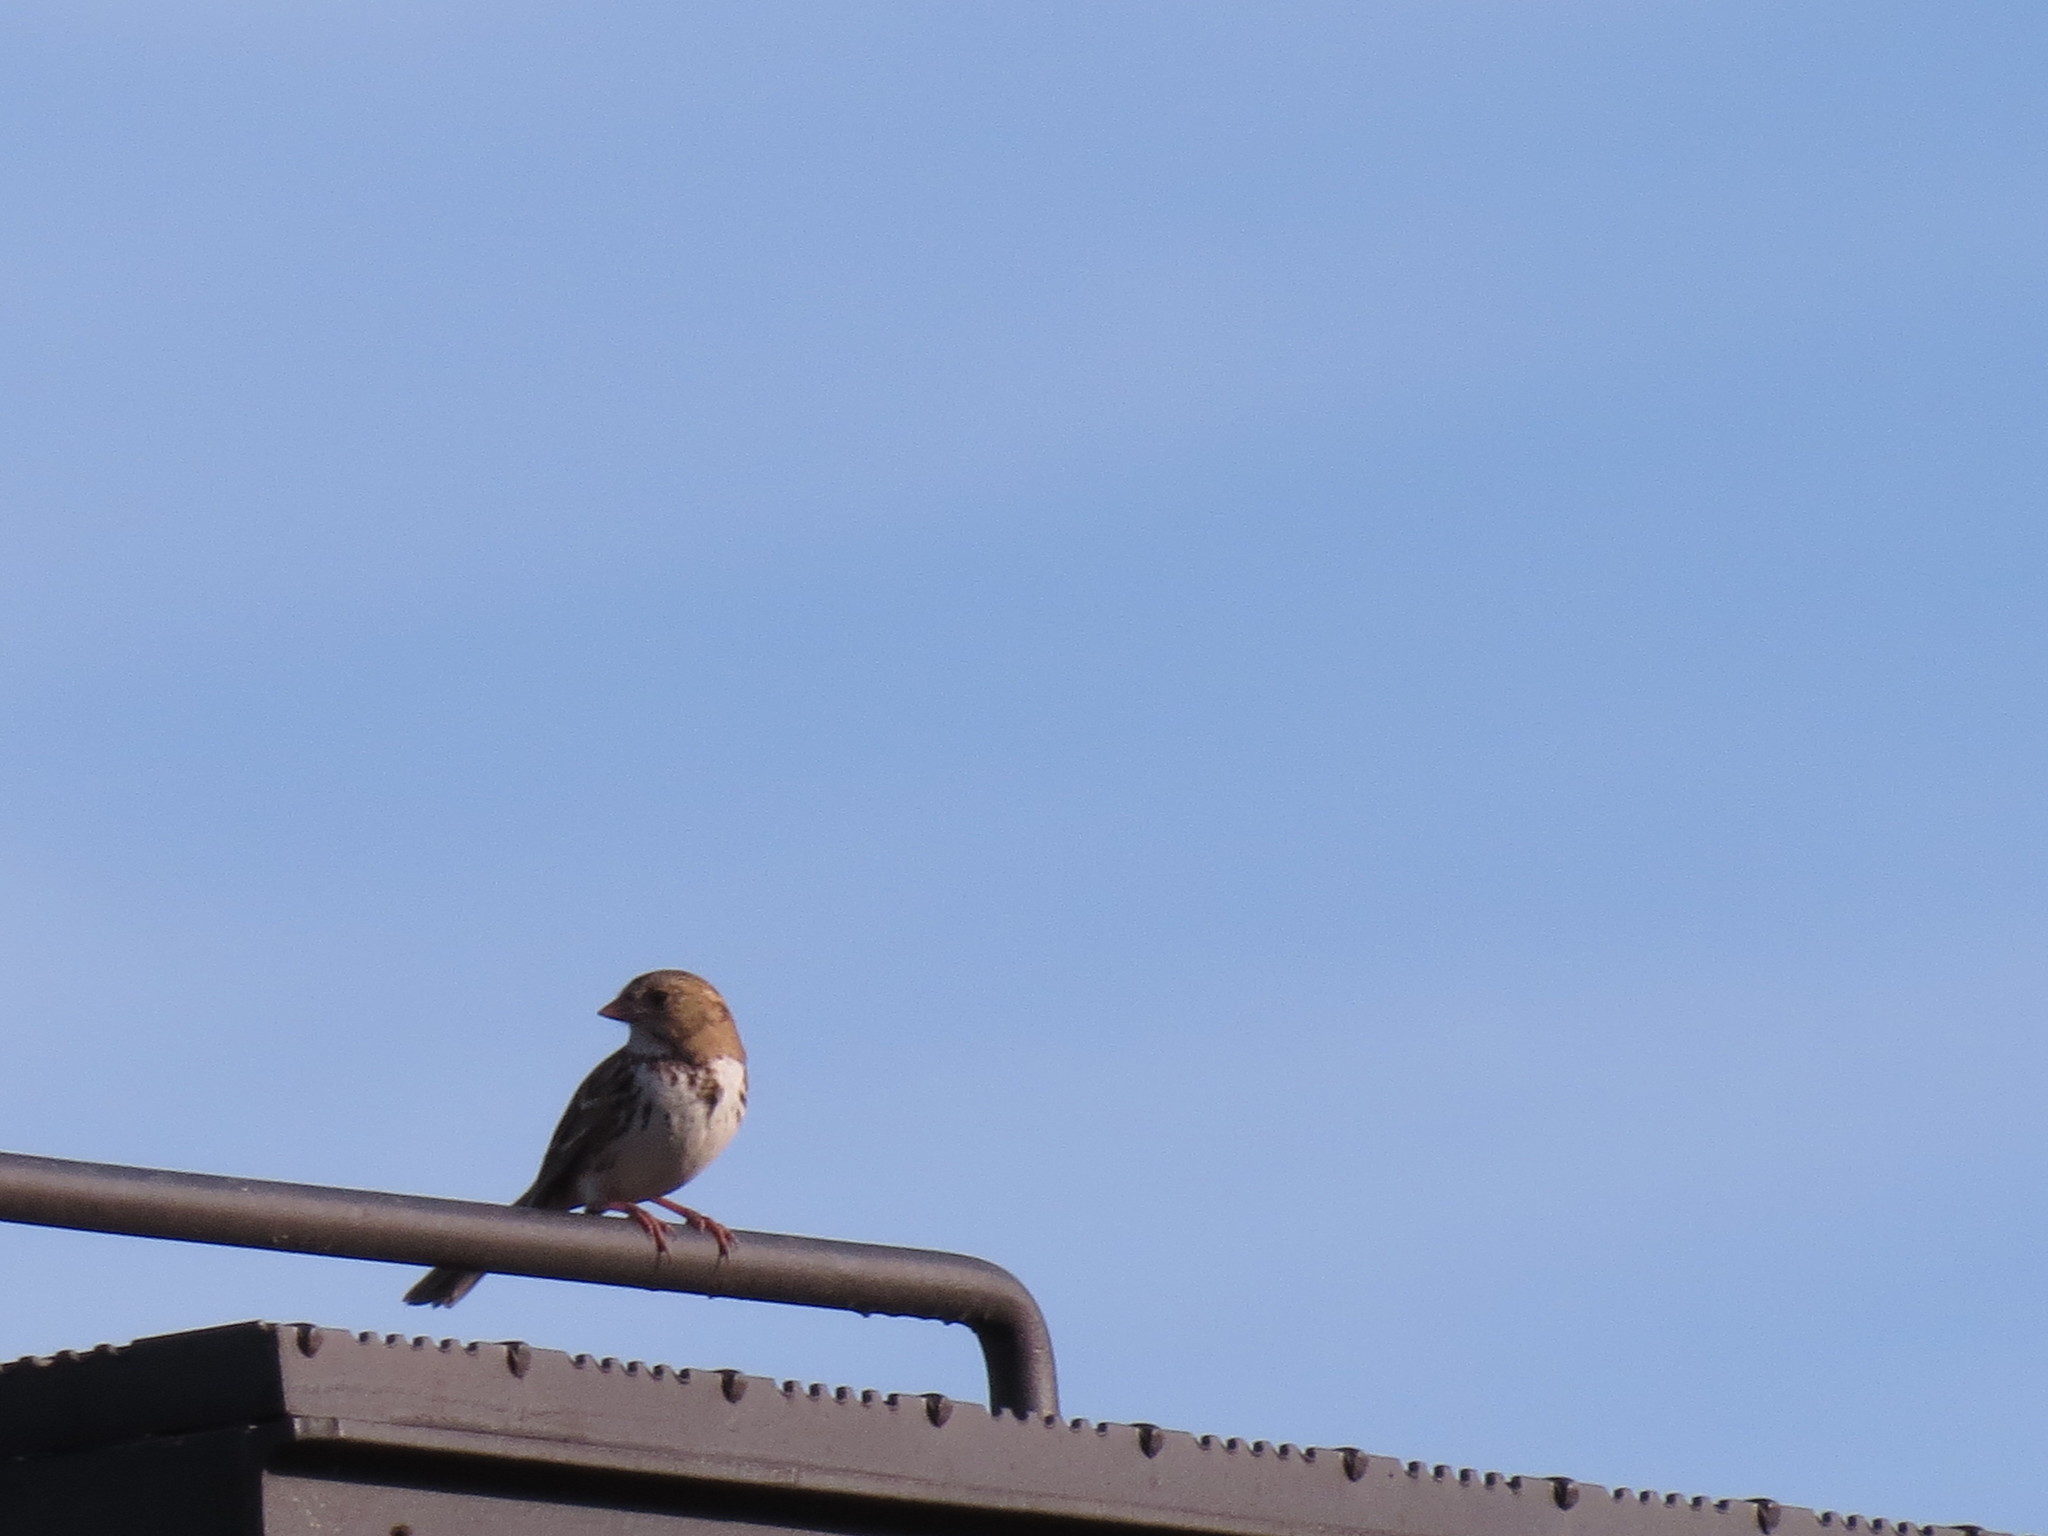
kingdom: Animalia
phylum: Chordata
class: Aves
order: Passeriformes
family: Passerellidae
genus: Zonotrichia
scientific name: Zonotrichia querula
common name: Harris's sparrow
